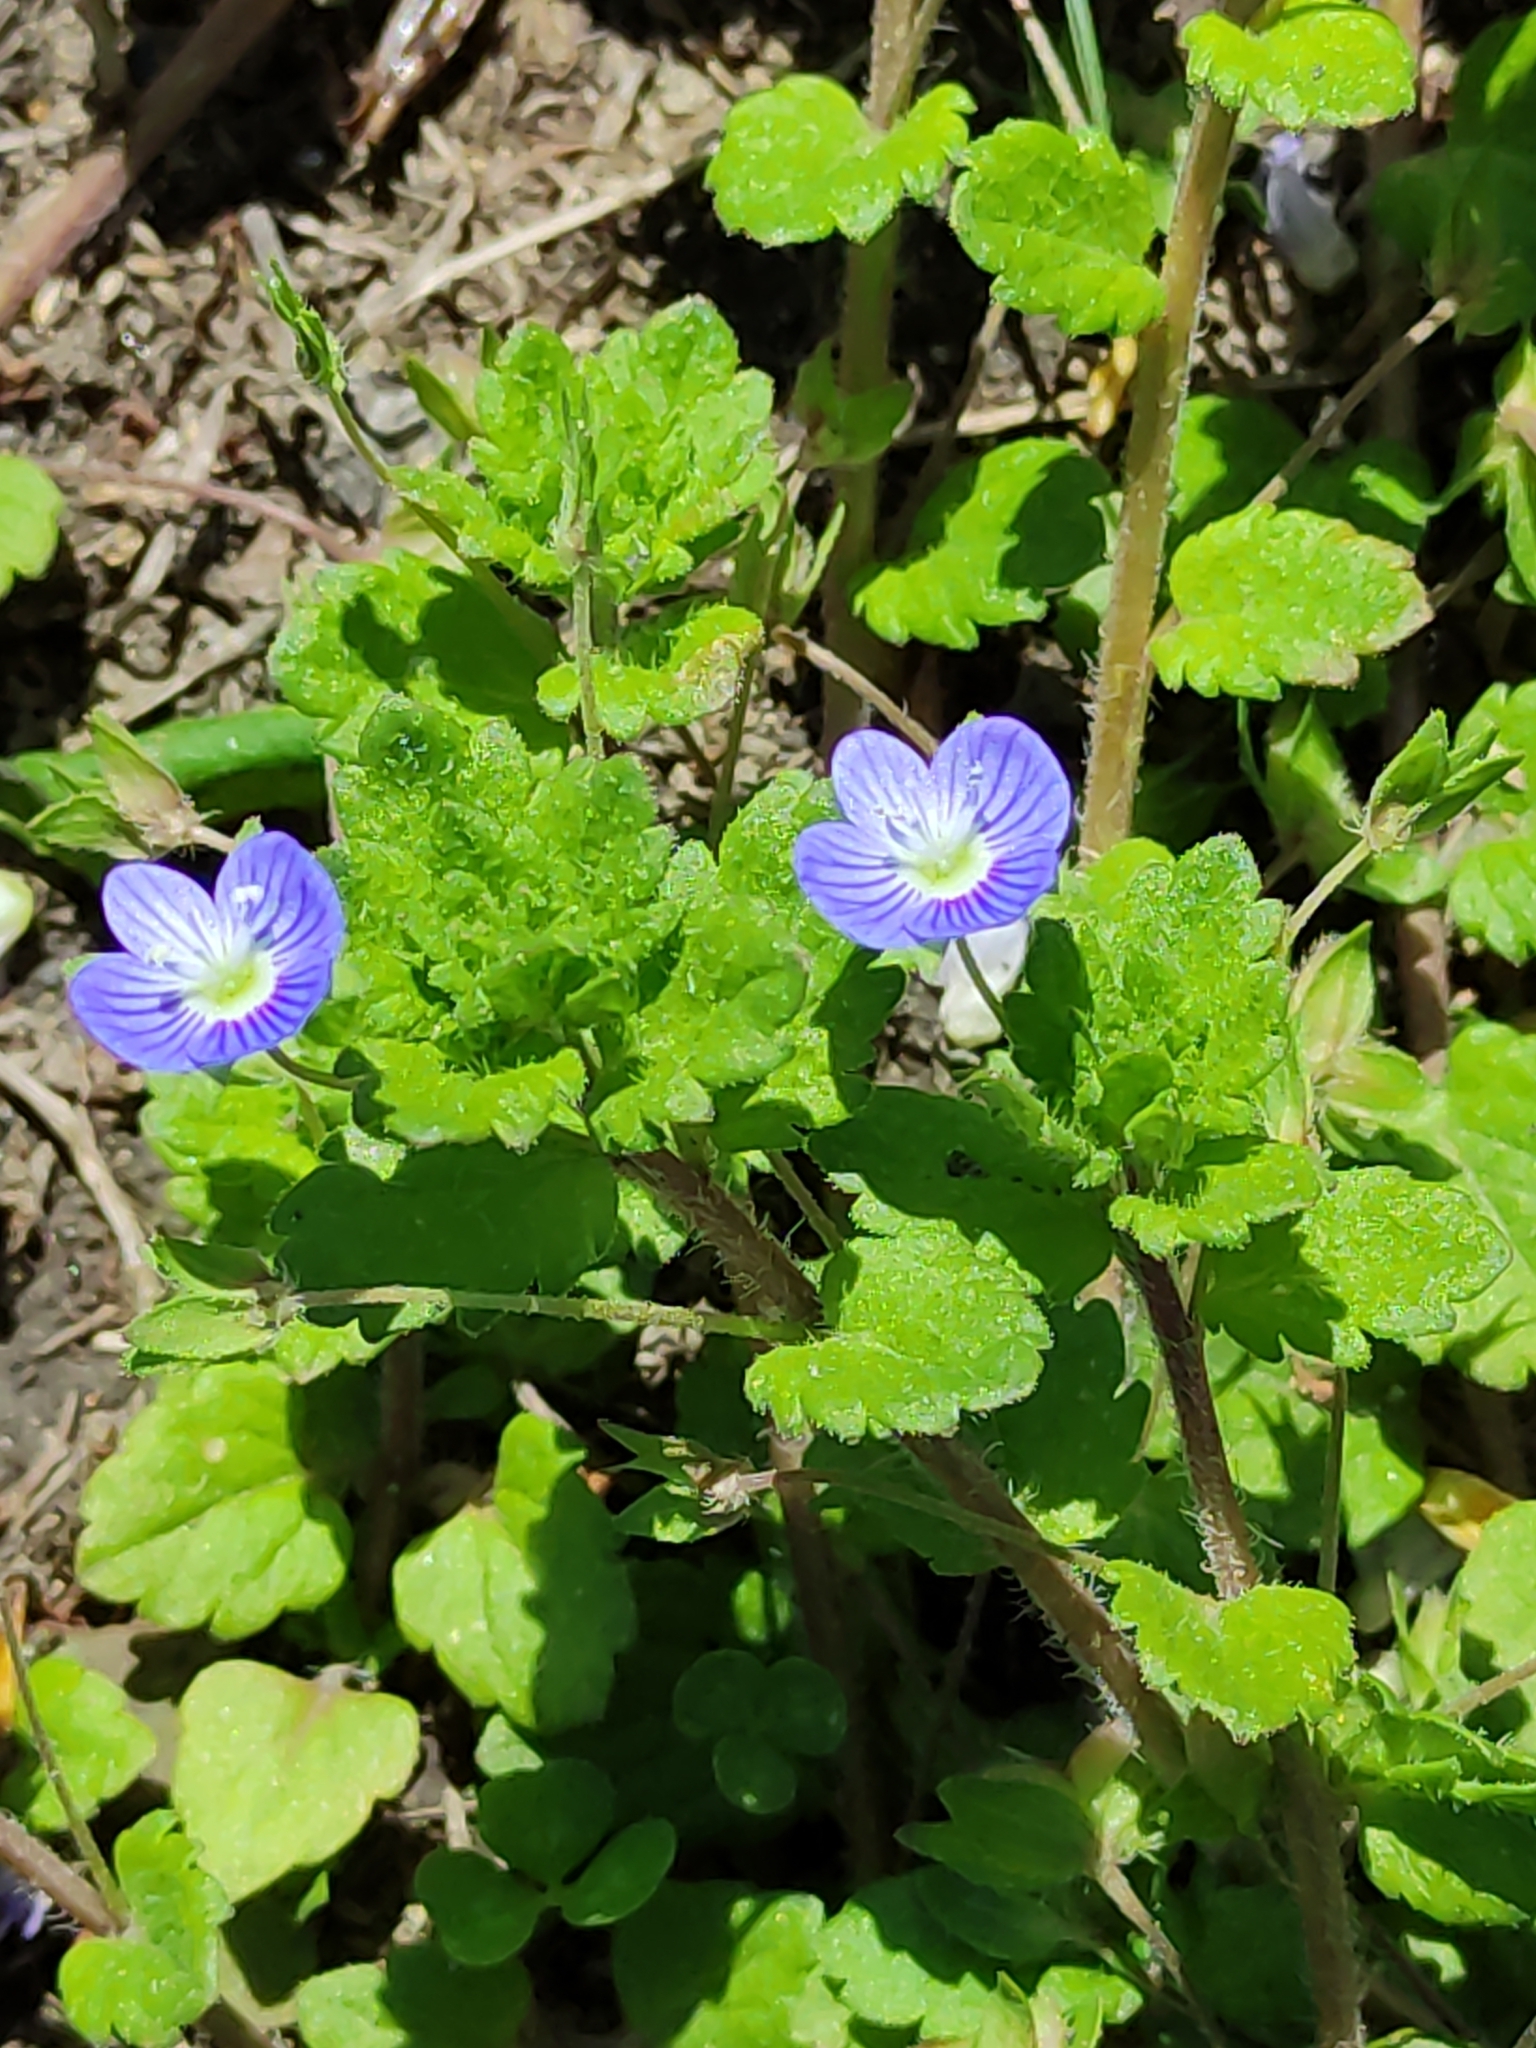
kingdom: Plantae
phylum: Tracheophyta
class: Magnoliopsida
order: Lamiales
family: Plantaginaceae
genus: Veronica
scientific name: Veronica persica
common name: Common field-speedwell
